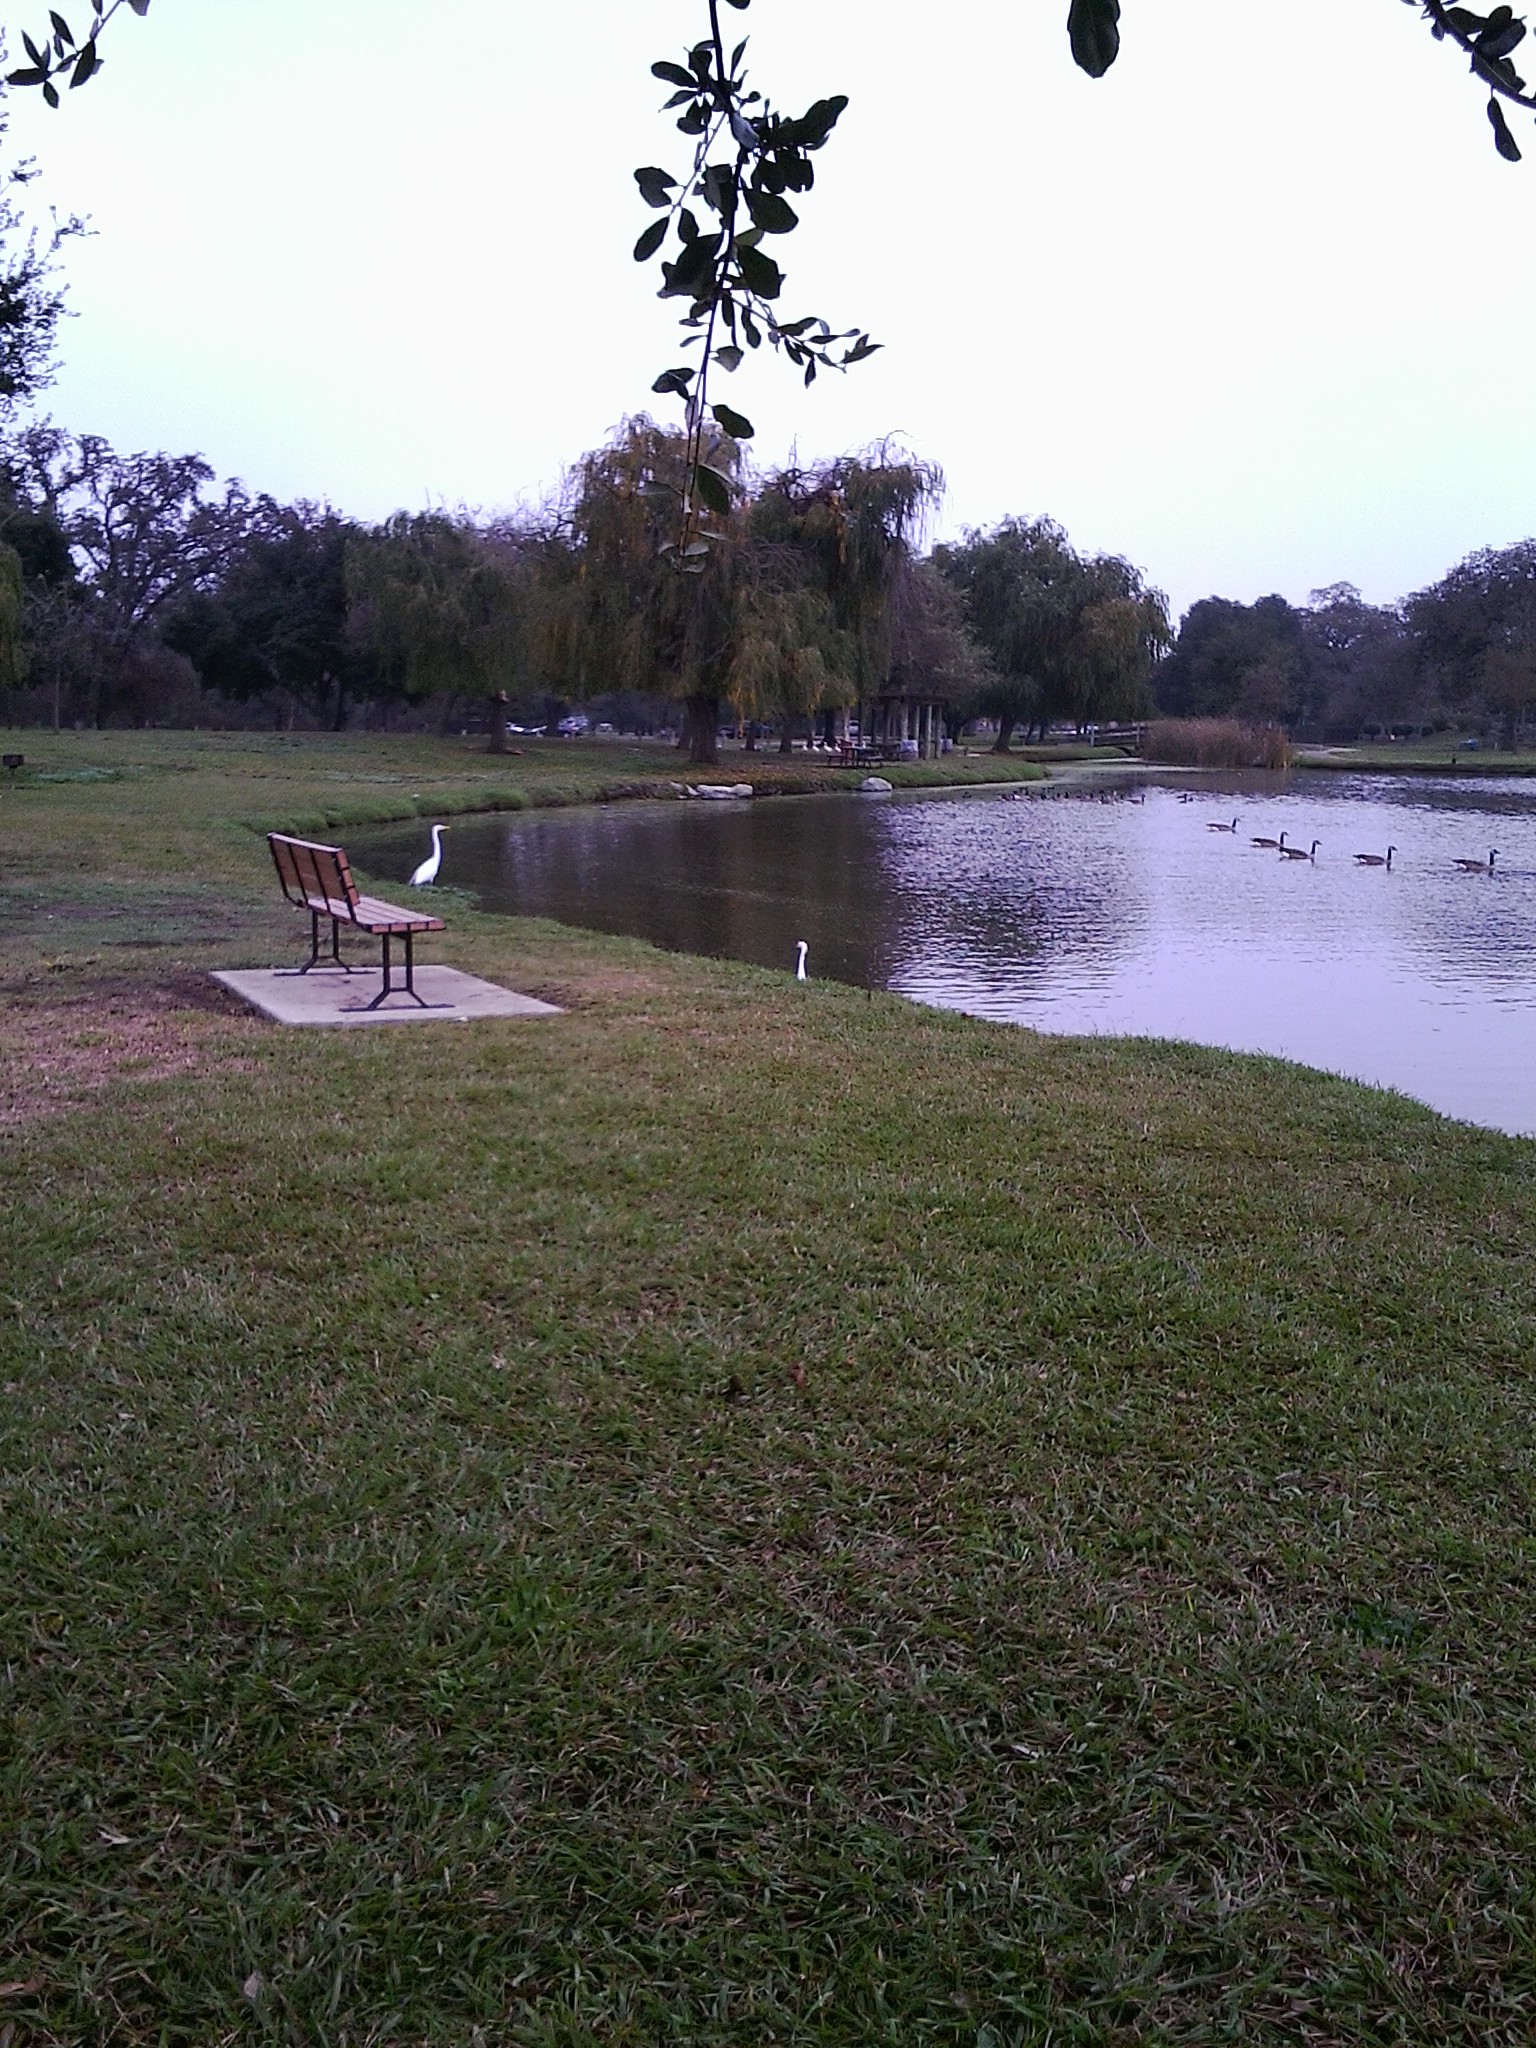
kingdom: Animalia
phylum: Chordata
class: Aves
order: Pelecaniformes
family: Ardeidae
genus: Ardea
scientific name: Ardea alba
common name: Great egret
